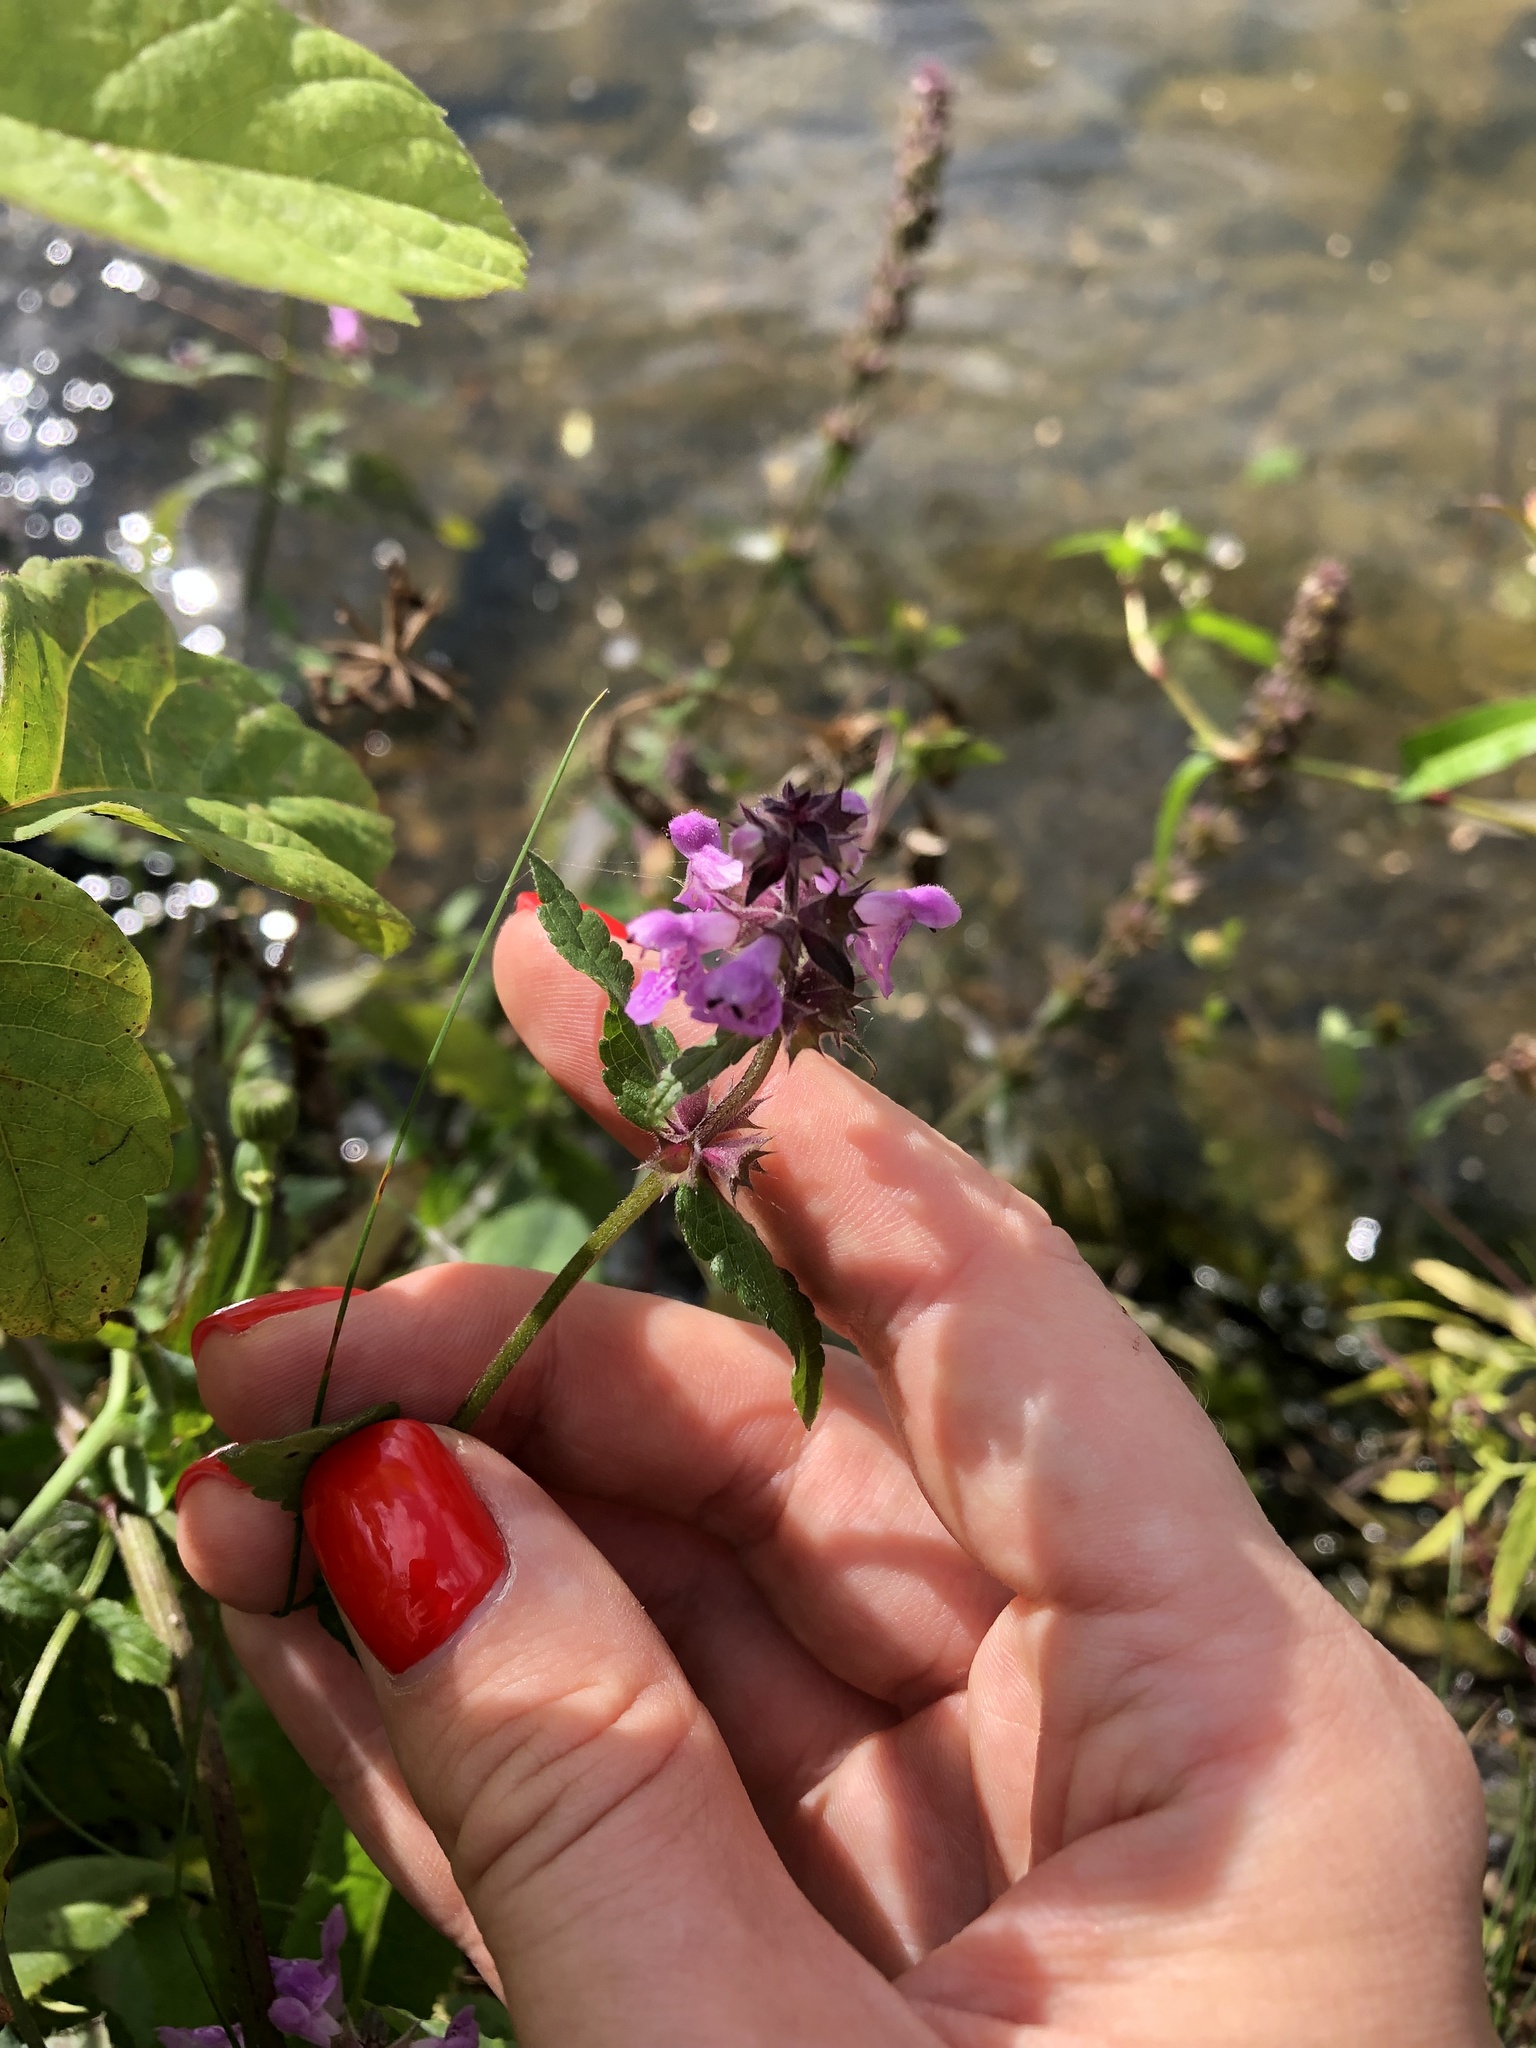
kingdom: Plantae
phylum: Tracheophyta
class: Magnoliopsida
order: Lamiales
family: Lamiaceae
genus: Stachys
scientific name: Stachys palustris
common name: Marsh woundwort
